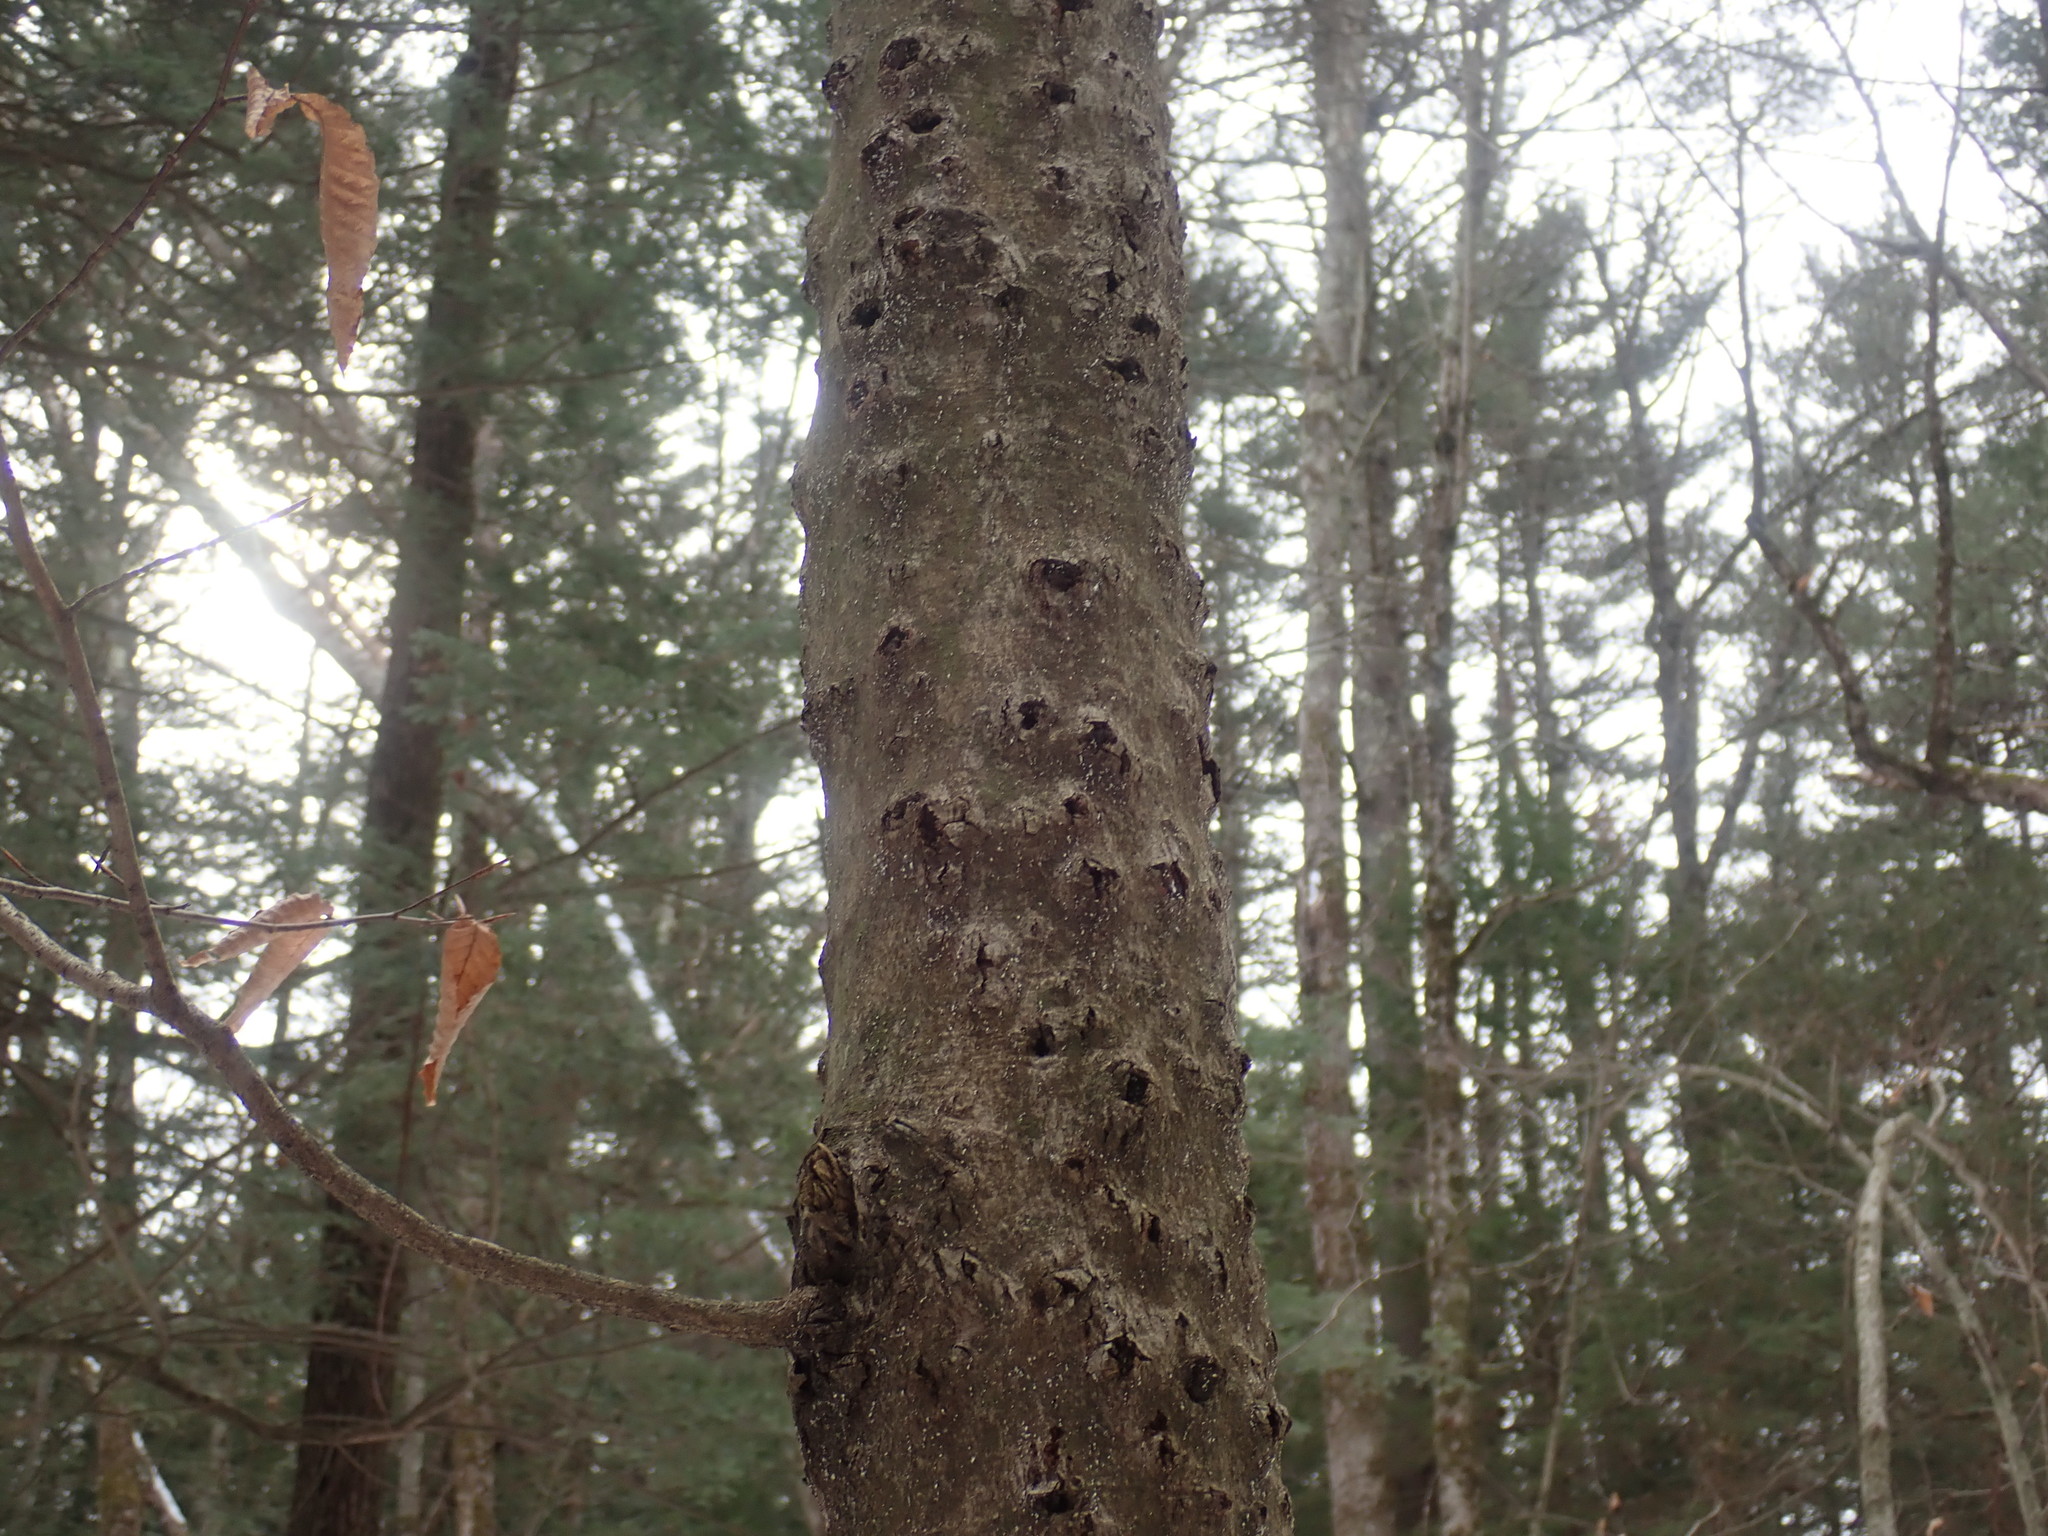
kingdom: Fungi
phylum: Ascomycota
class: Sordariomycetes
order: Hypocreales
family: Nectriaceae
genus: Neonectria
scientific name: Neonectria faginata
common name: Beech bark canker
